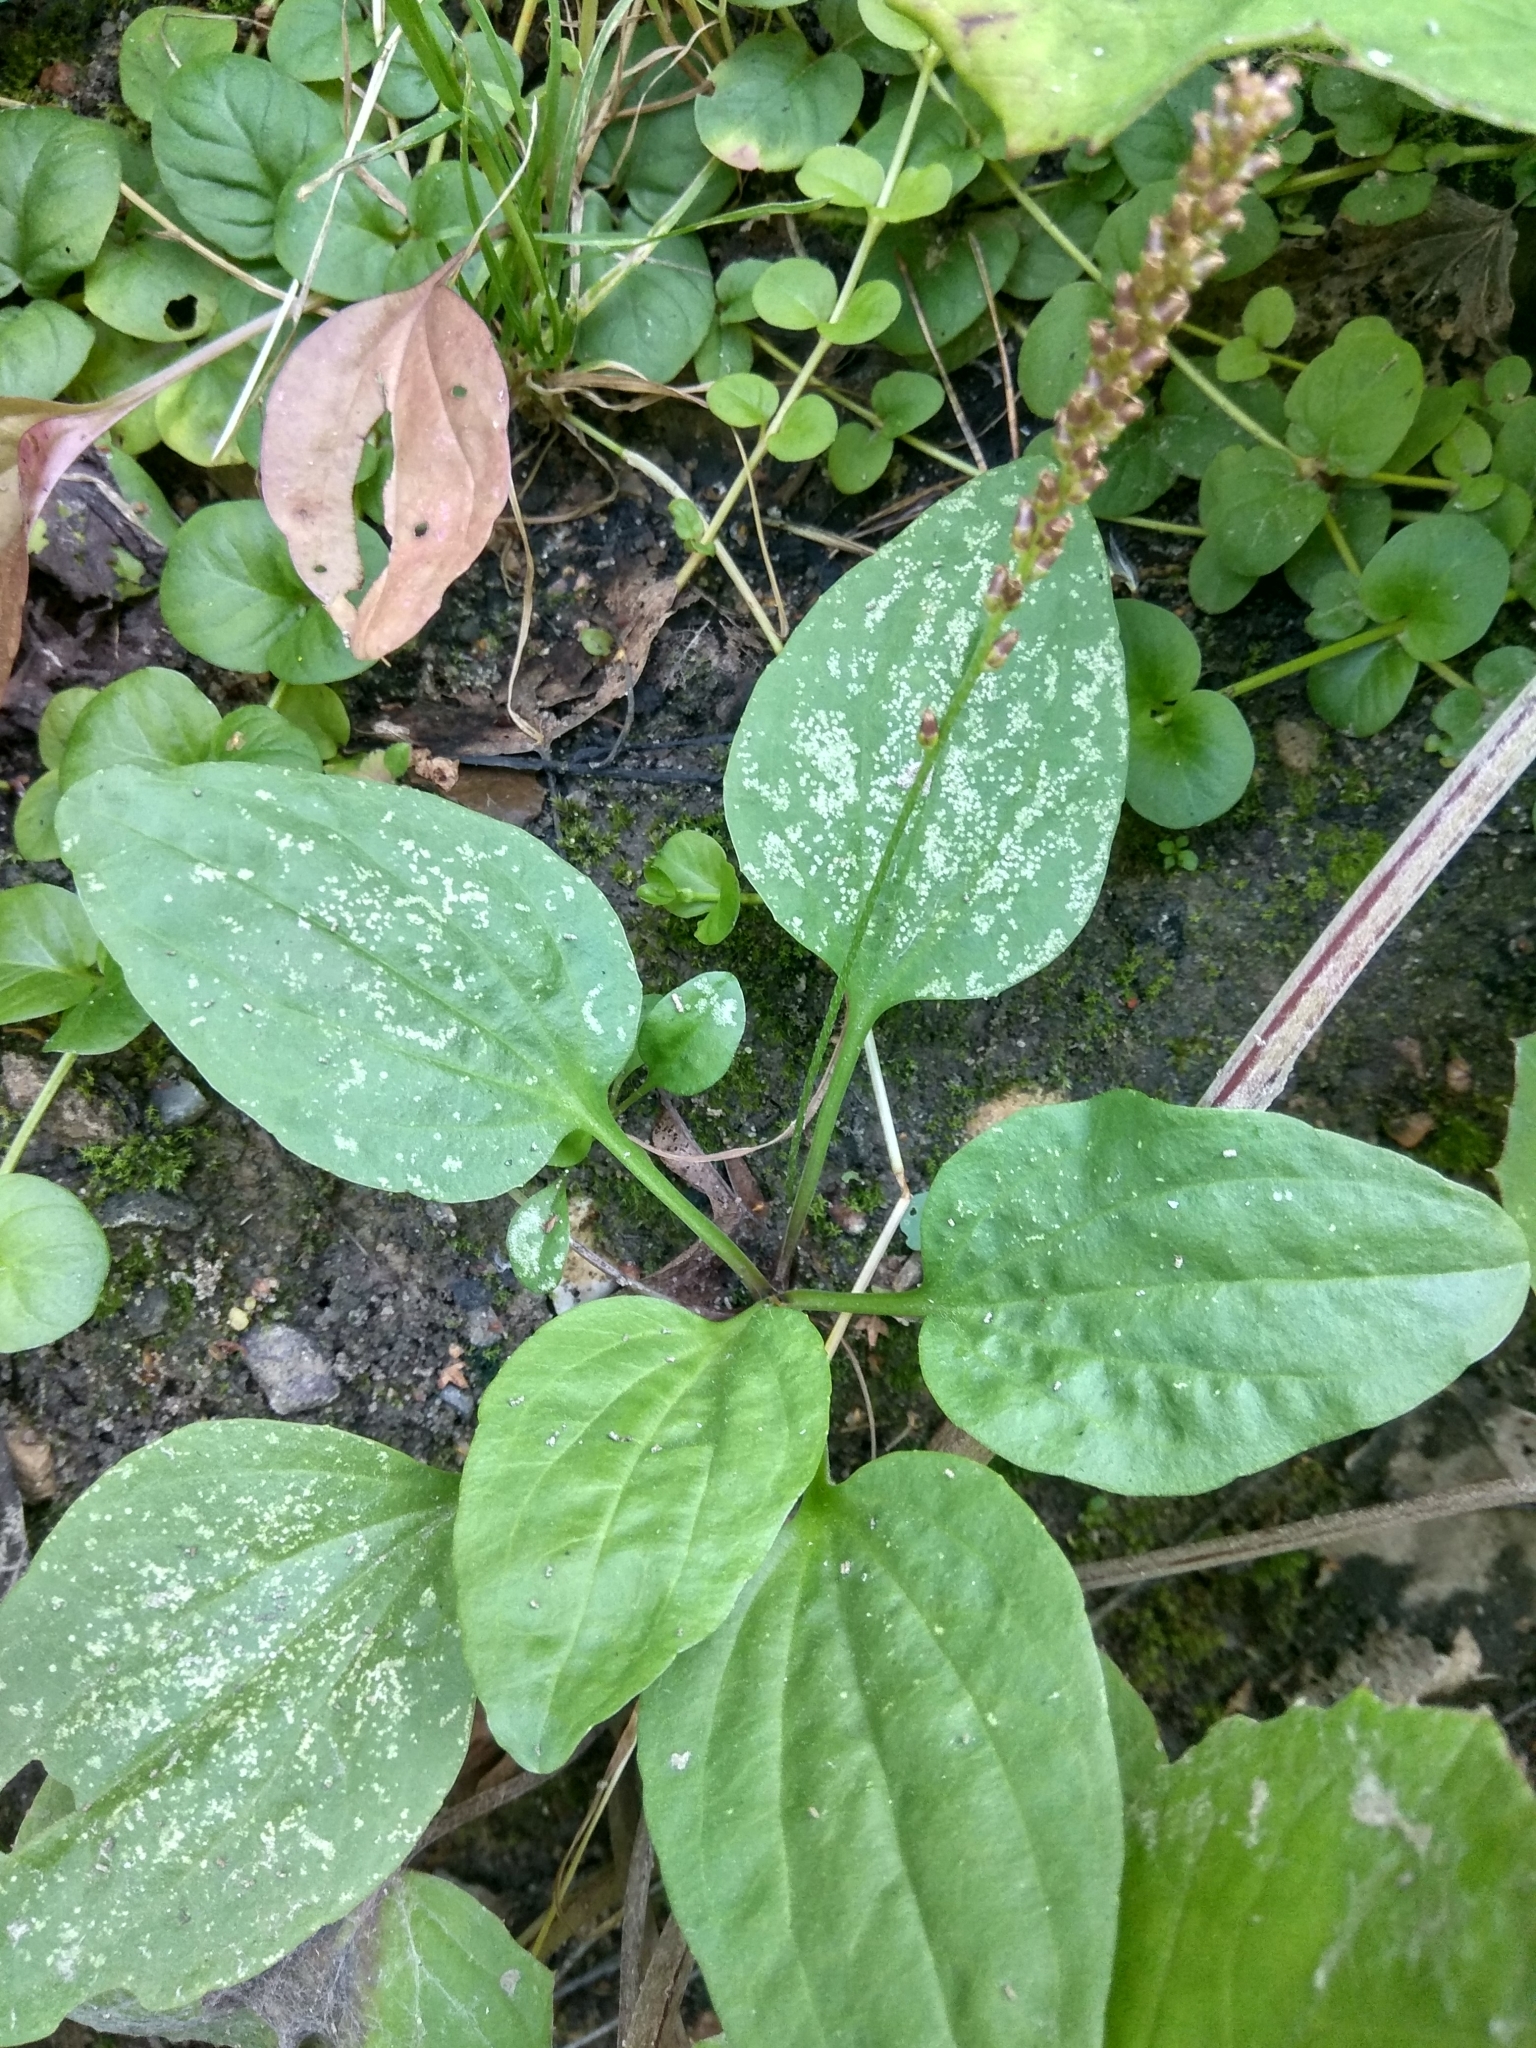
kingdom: Plantae
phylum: Tracheophyta
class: Magnoliopsida
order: Lamiales
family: Plantaginaceae
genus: Plantago
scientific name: Plantago major
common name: Common plantain
